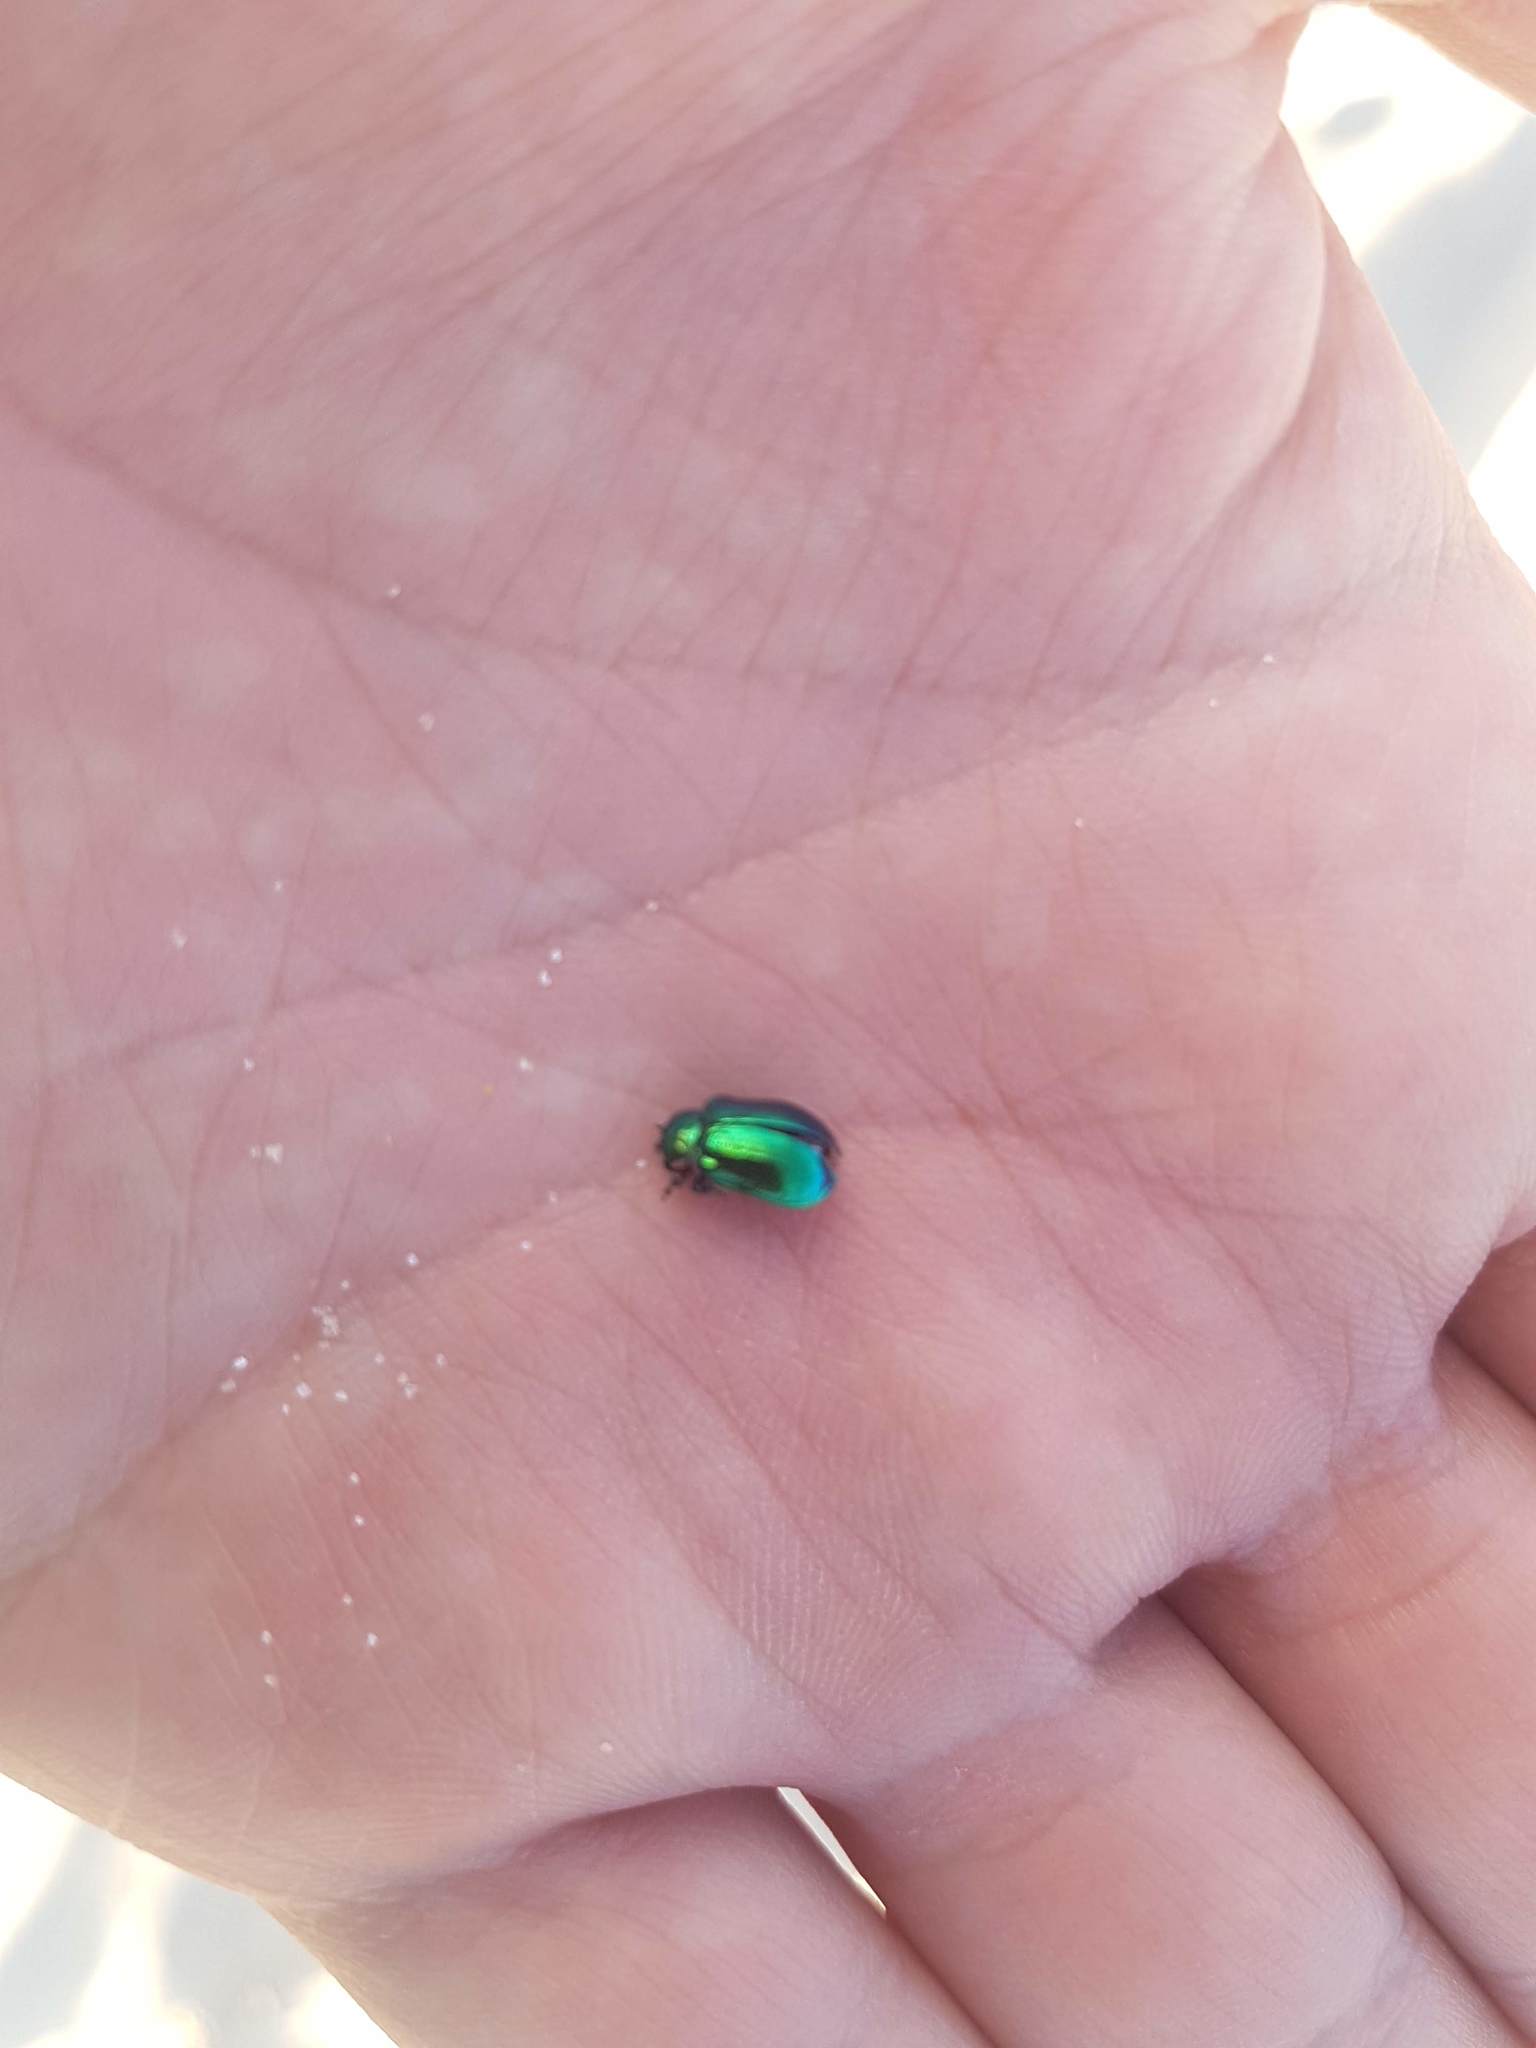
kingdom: Animalia
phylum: Arthropoda
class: Insecta
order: Coleoptera
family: Chrysomelidae
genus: Plagiosterna
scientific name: Plagiosterna aenea
